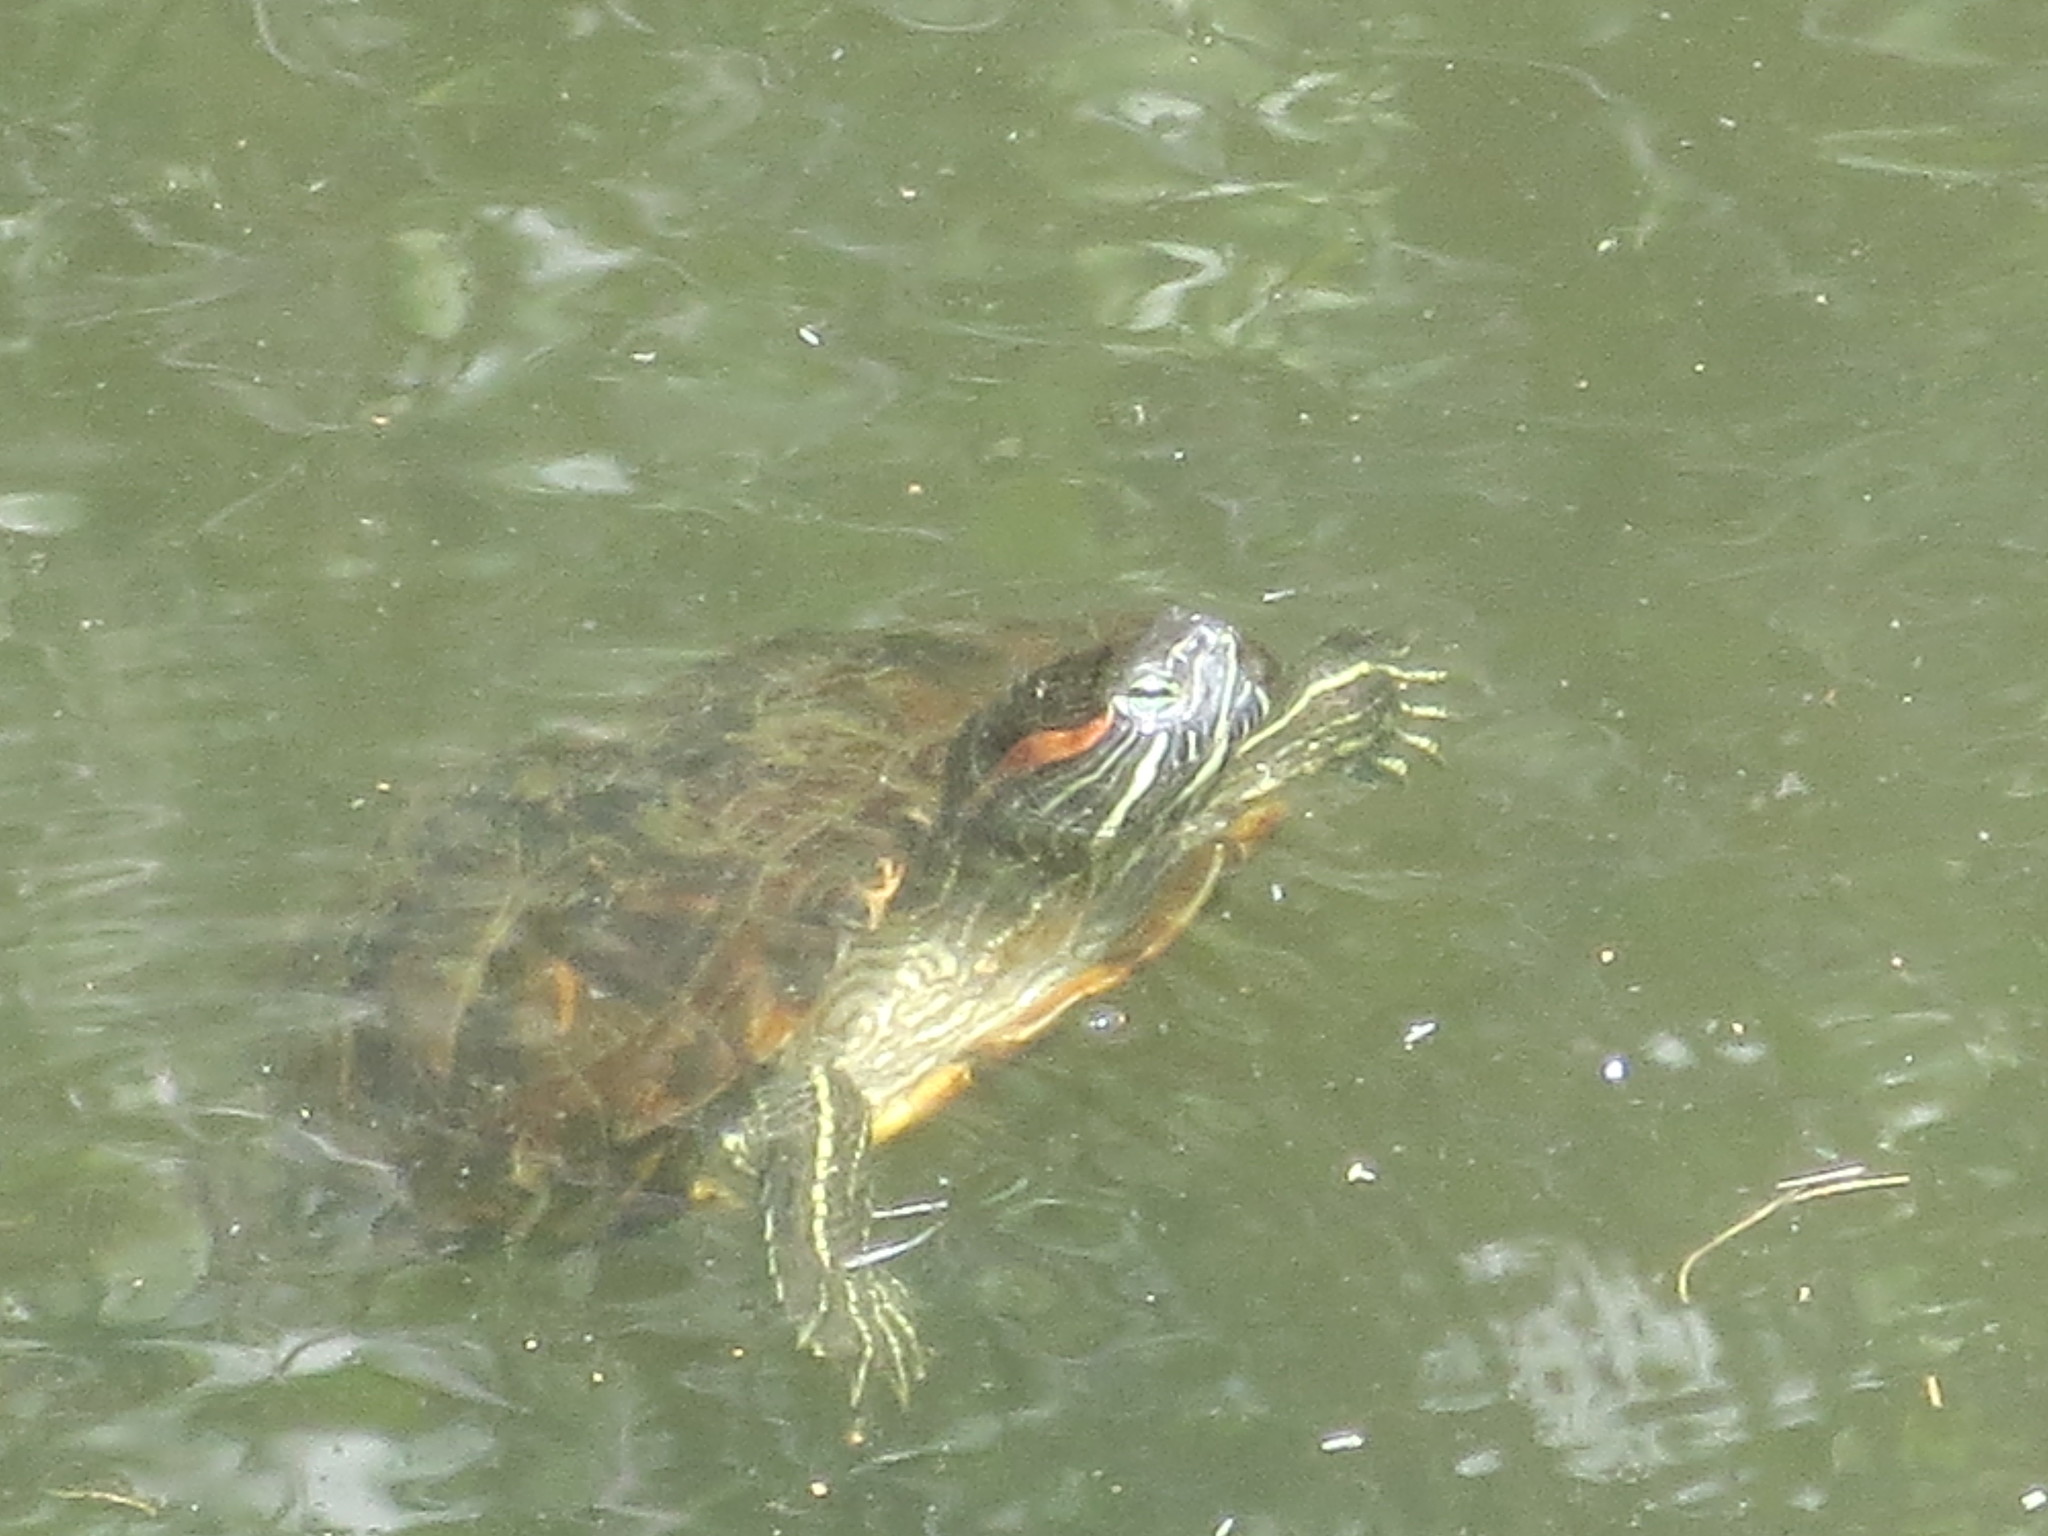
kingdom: Animalia
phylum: Chordata
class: Testudines
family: Emydidae
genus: Trachemys
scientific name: Trachemys scripta
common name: Slider
